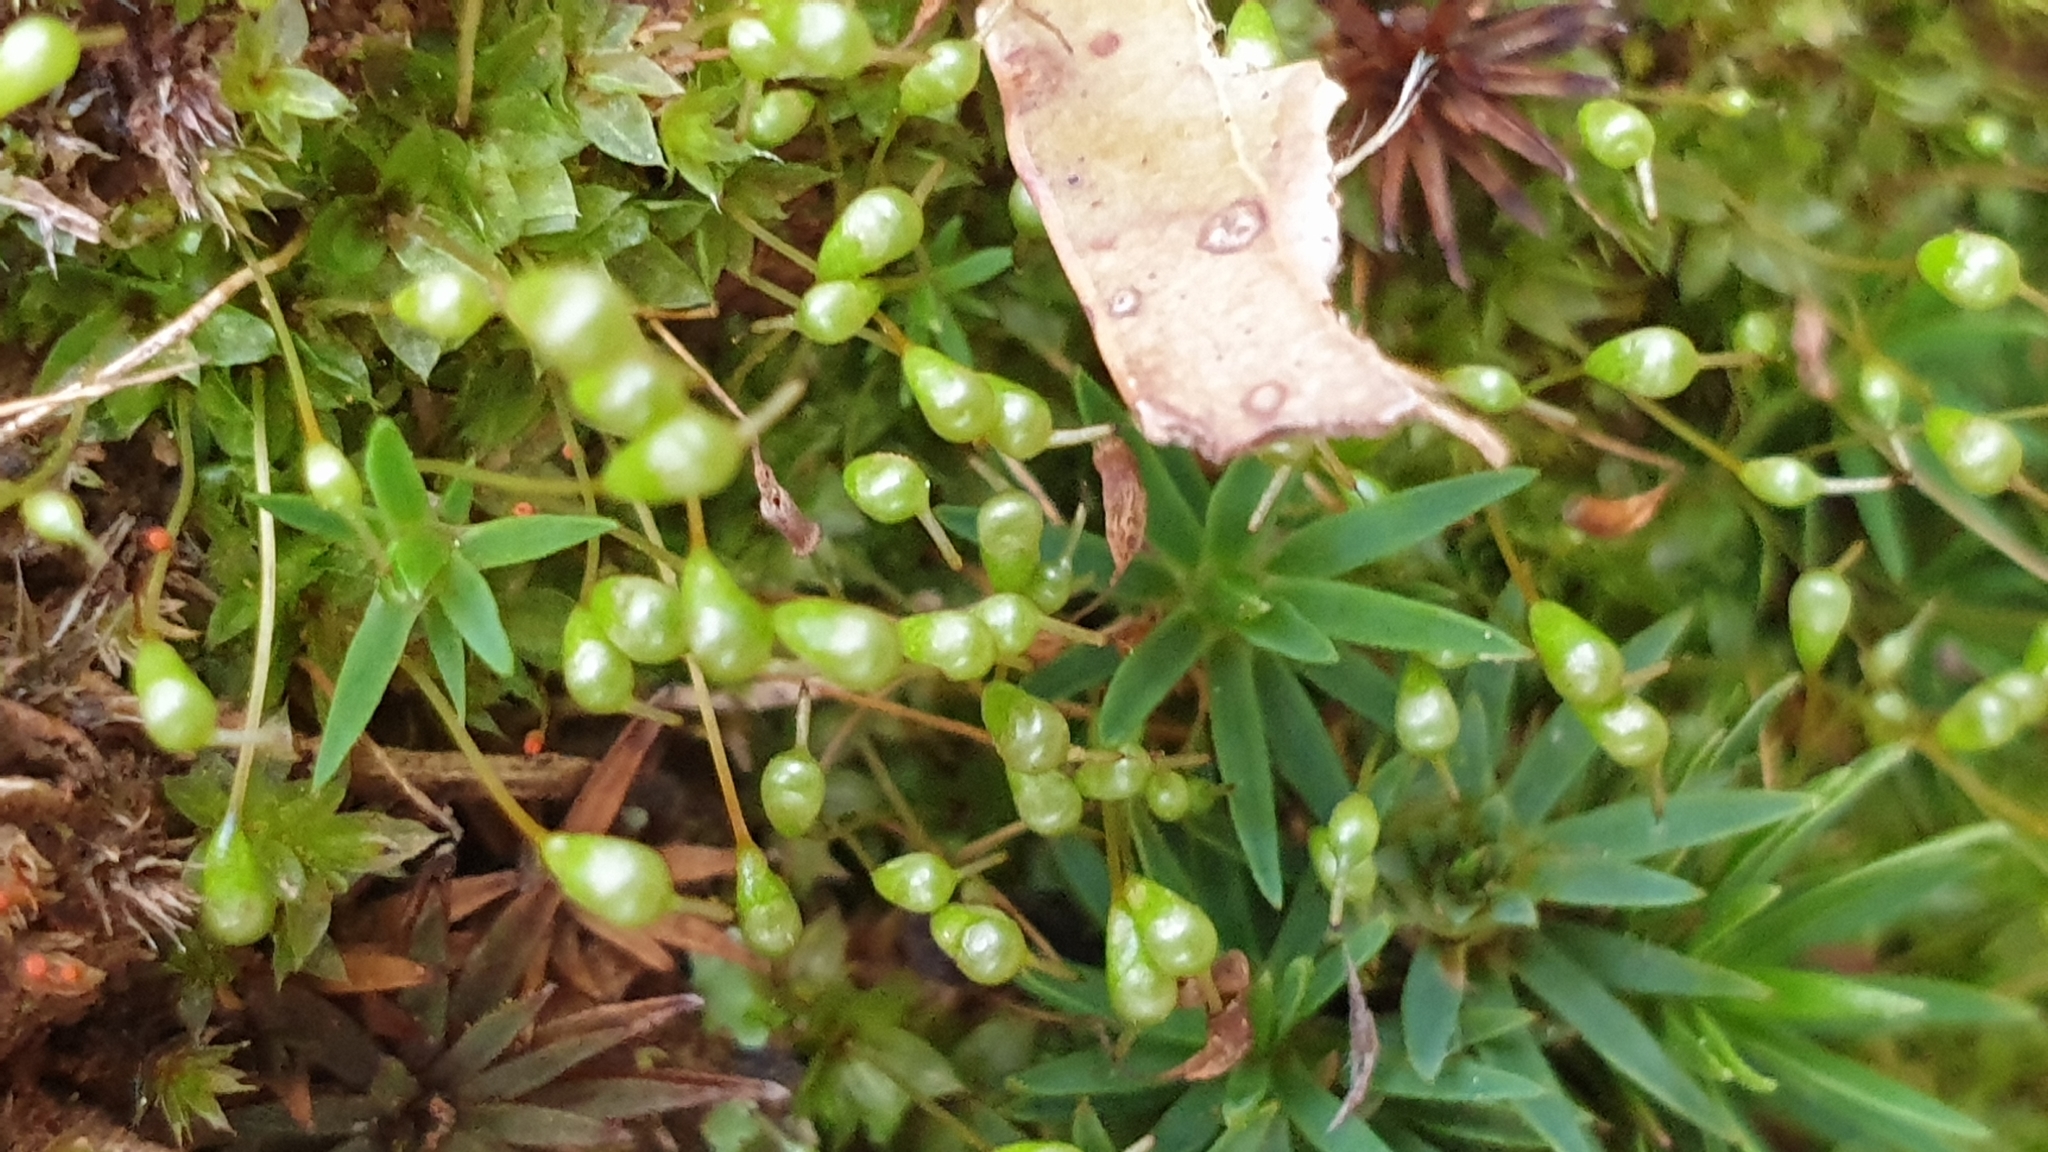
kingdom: Plantae
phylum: Bryophyta
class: Bryopsida
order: Funariales
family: Funariaceae
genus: Entosthodon
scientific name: Entosthodon subnudus
